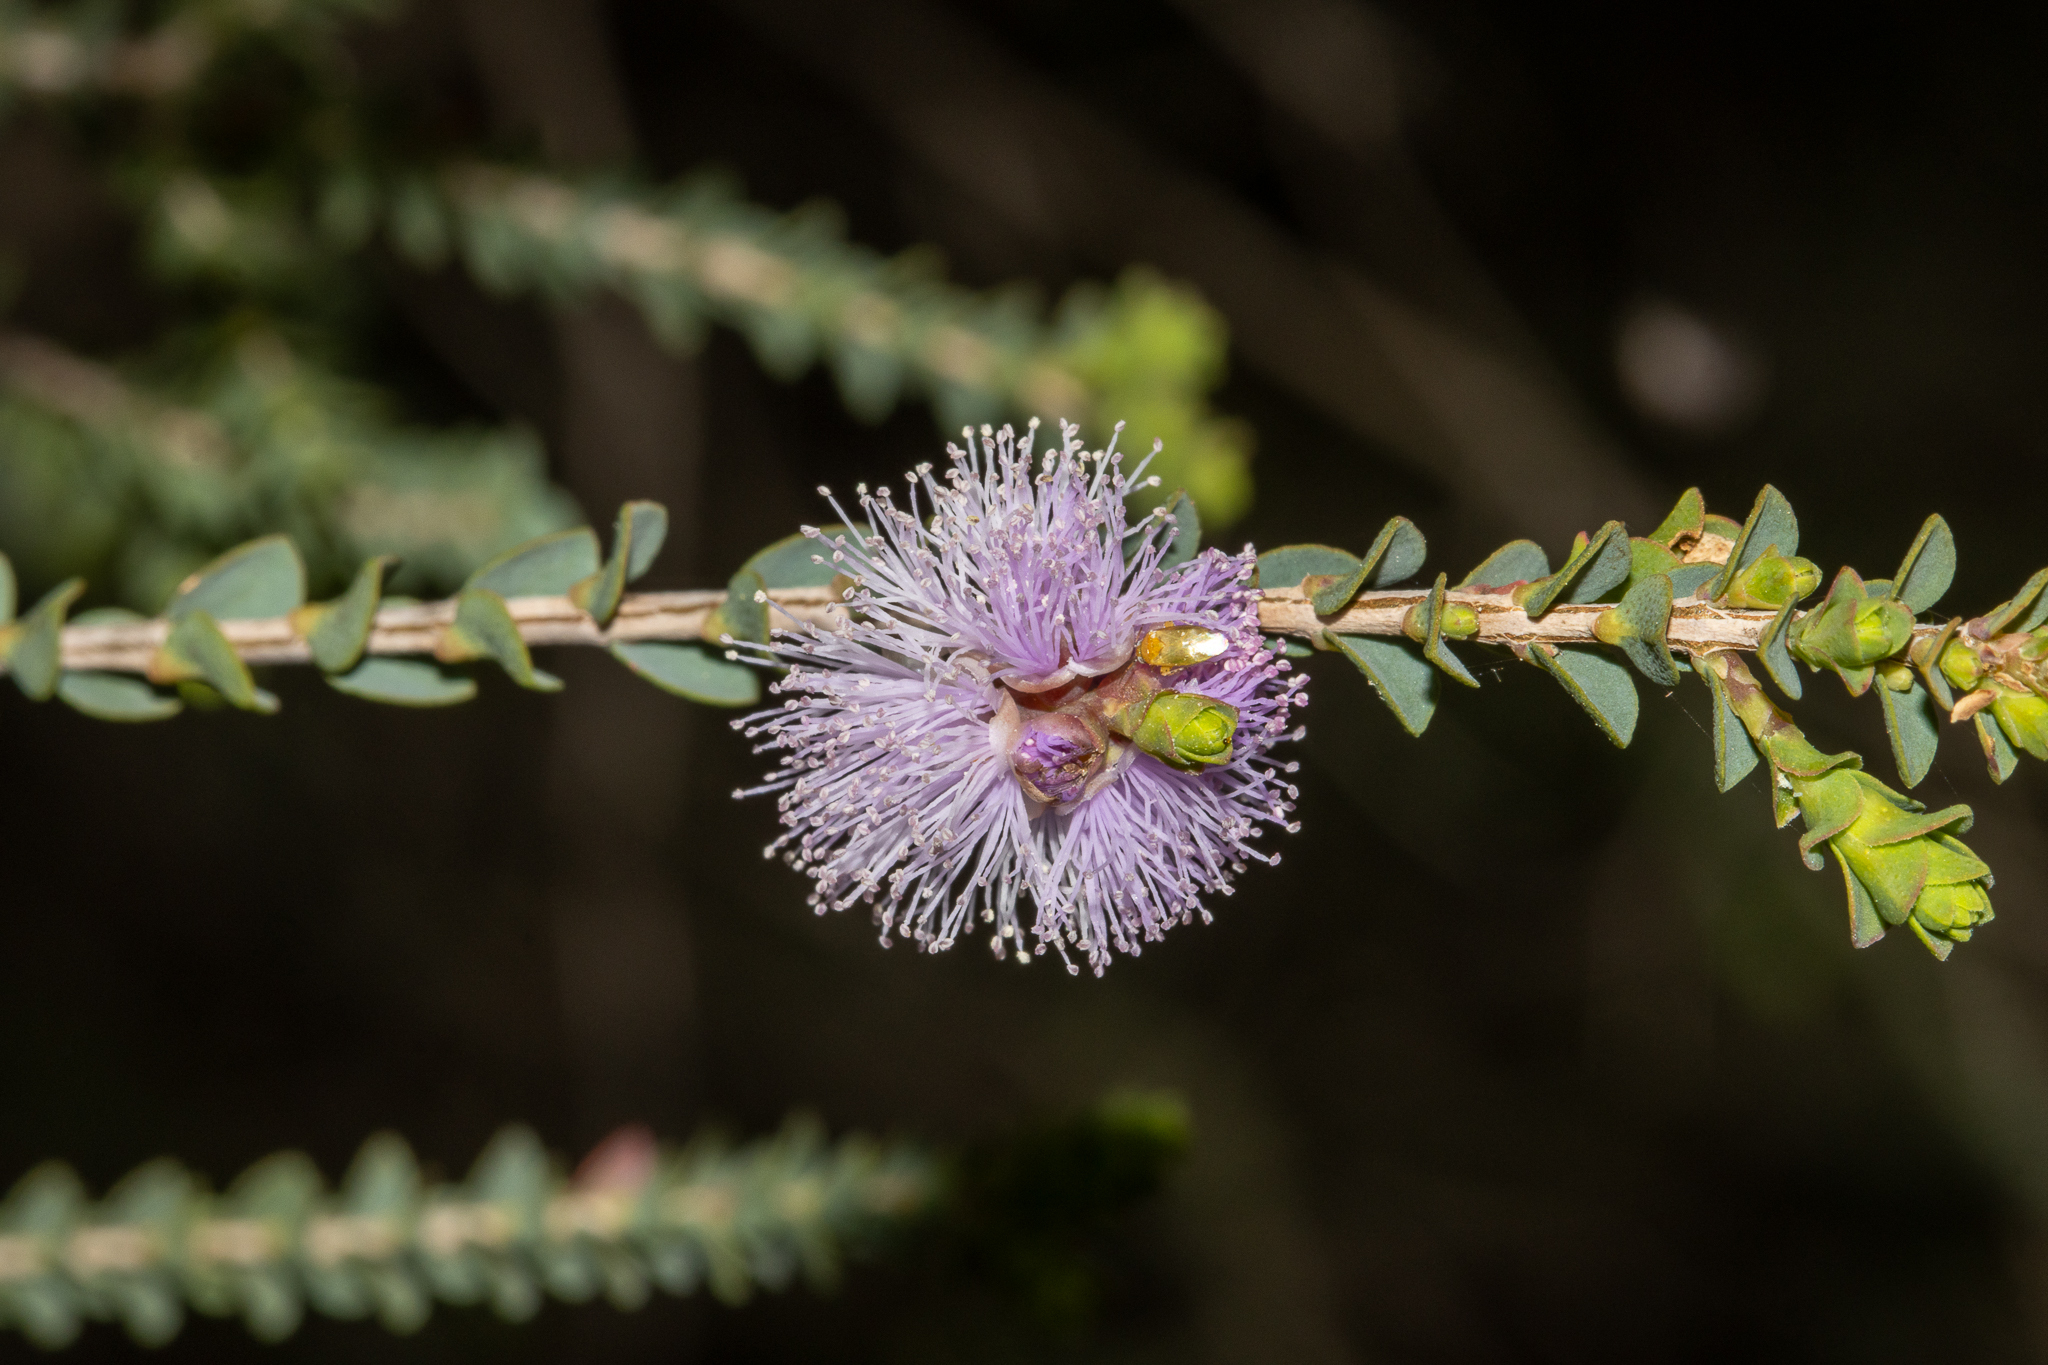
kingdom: Plantae
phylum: Tracheophyta
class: Magnoliopsida
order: Myrtales
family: Myrtaceae
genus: Melaleuca
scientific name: Melaleuca gibbosa
